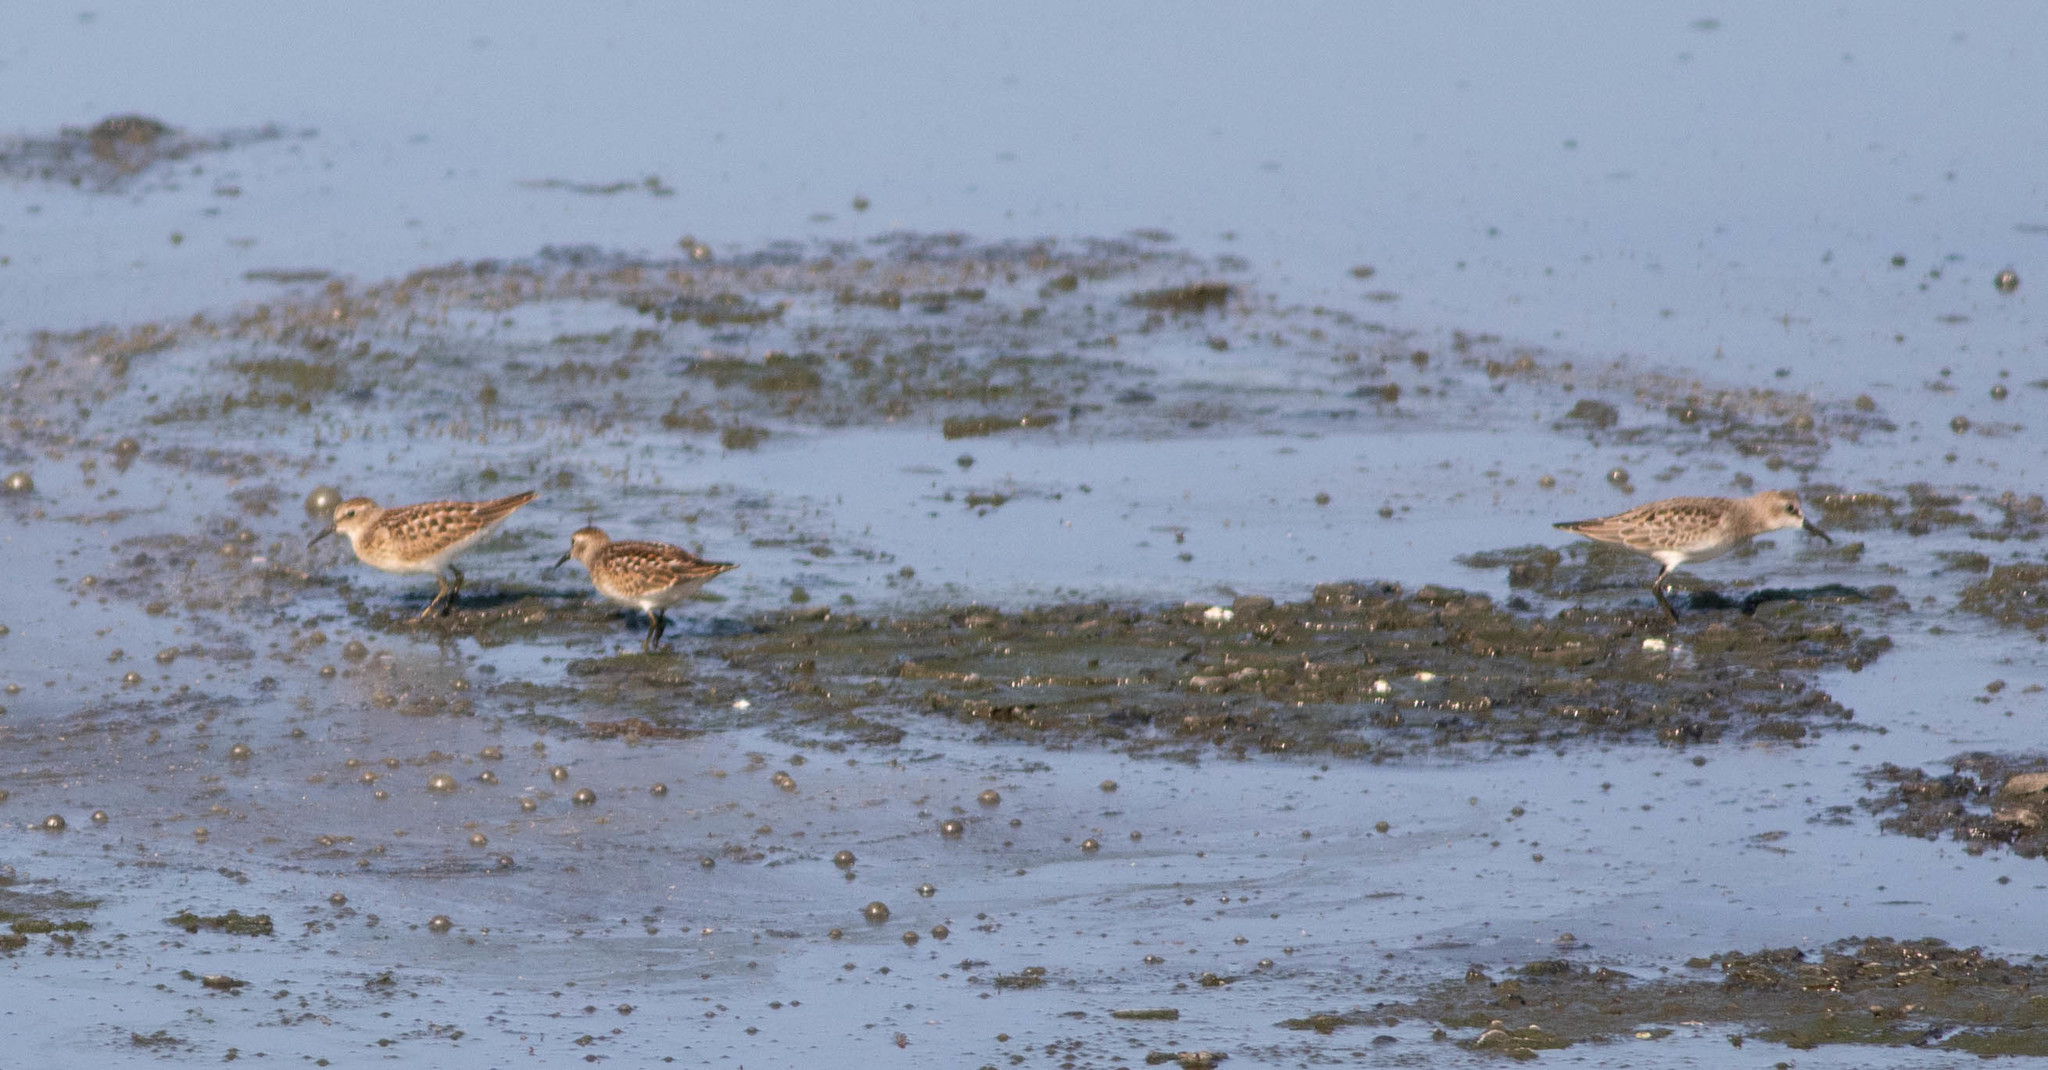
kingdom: Animalia
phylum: Chordata
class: Aves
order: Charadriiformes
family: Scolopacidae
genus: Calidris
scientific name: Calidris minutilla
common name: Least sandpiper
